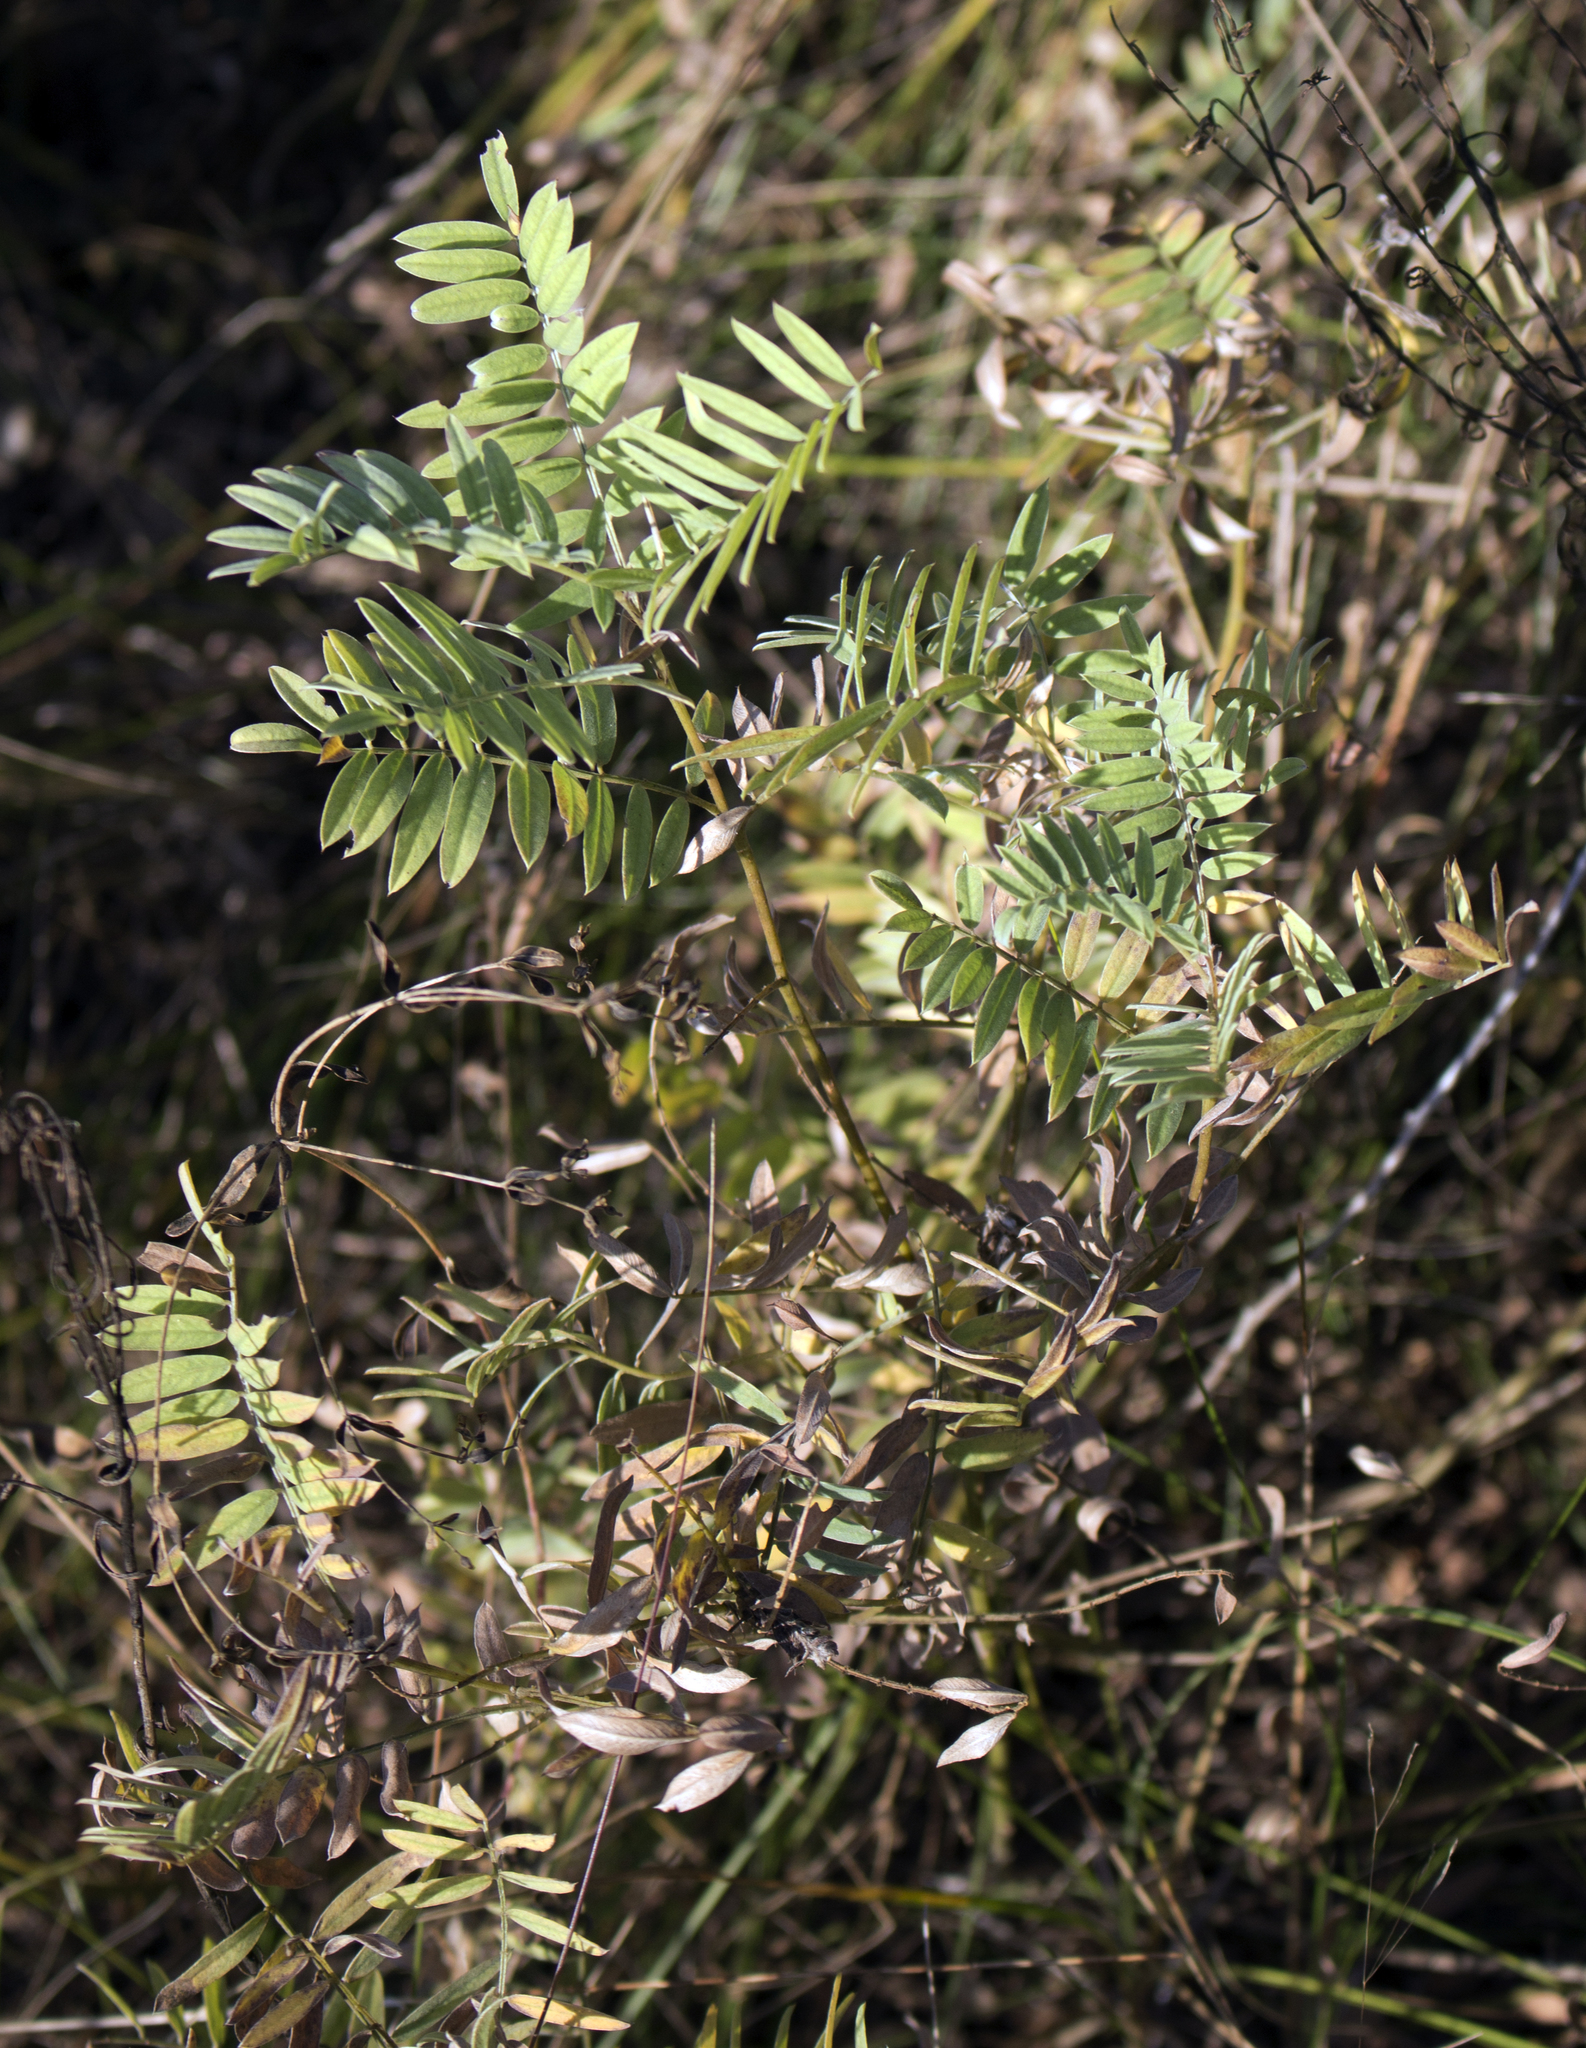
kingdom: Plantae
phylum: Tracheophyta
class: Magnoliopsida
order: Fabales
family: Fabaceae
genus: Tephrosia
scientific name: Tephrosia virginiana
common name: Rabbit-pea
